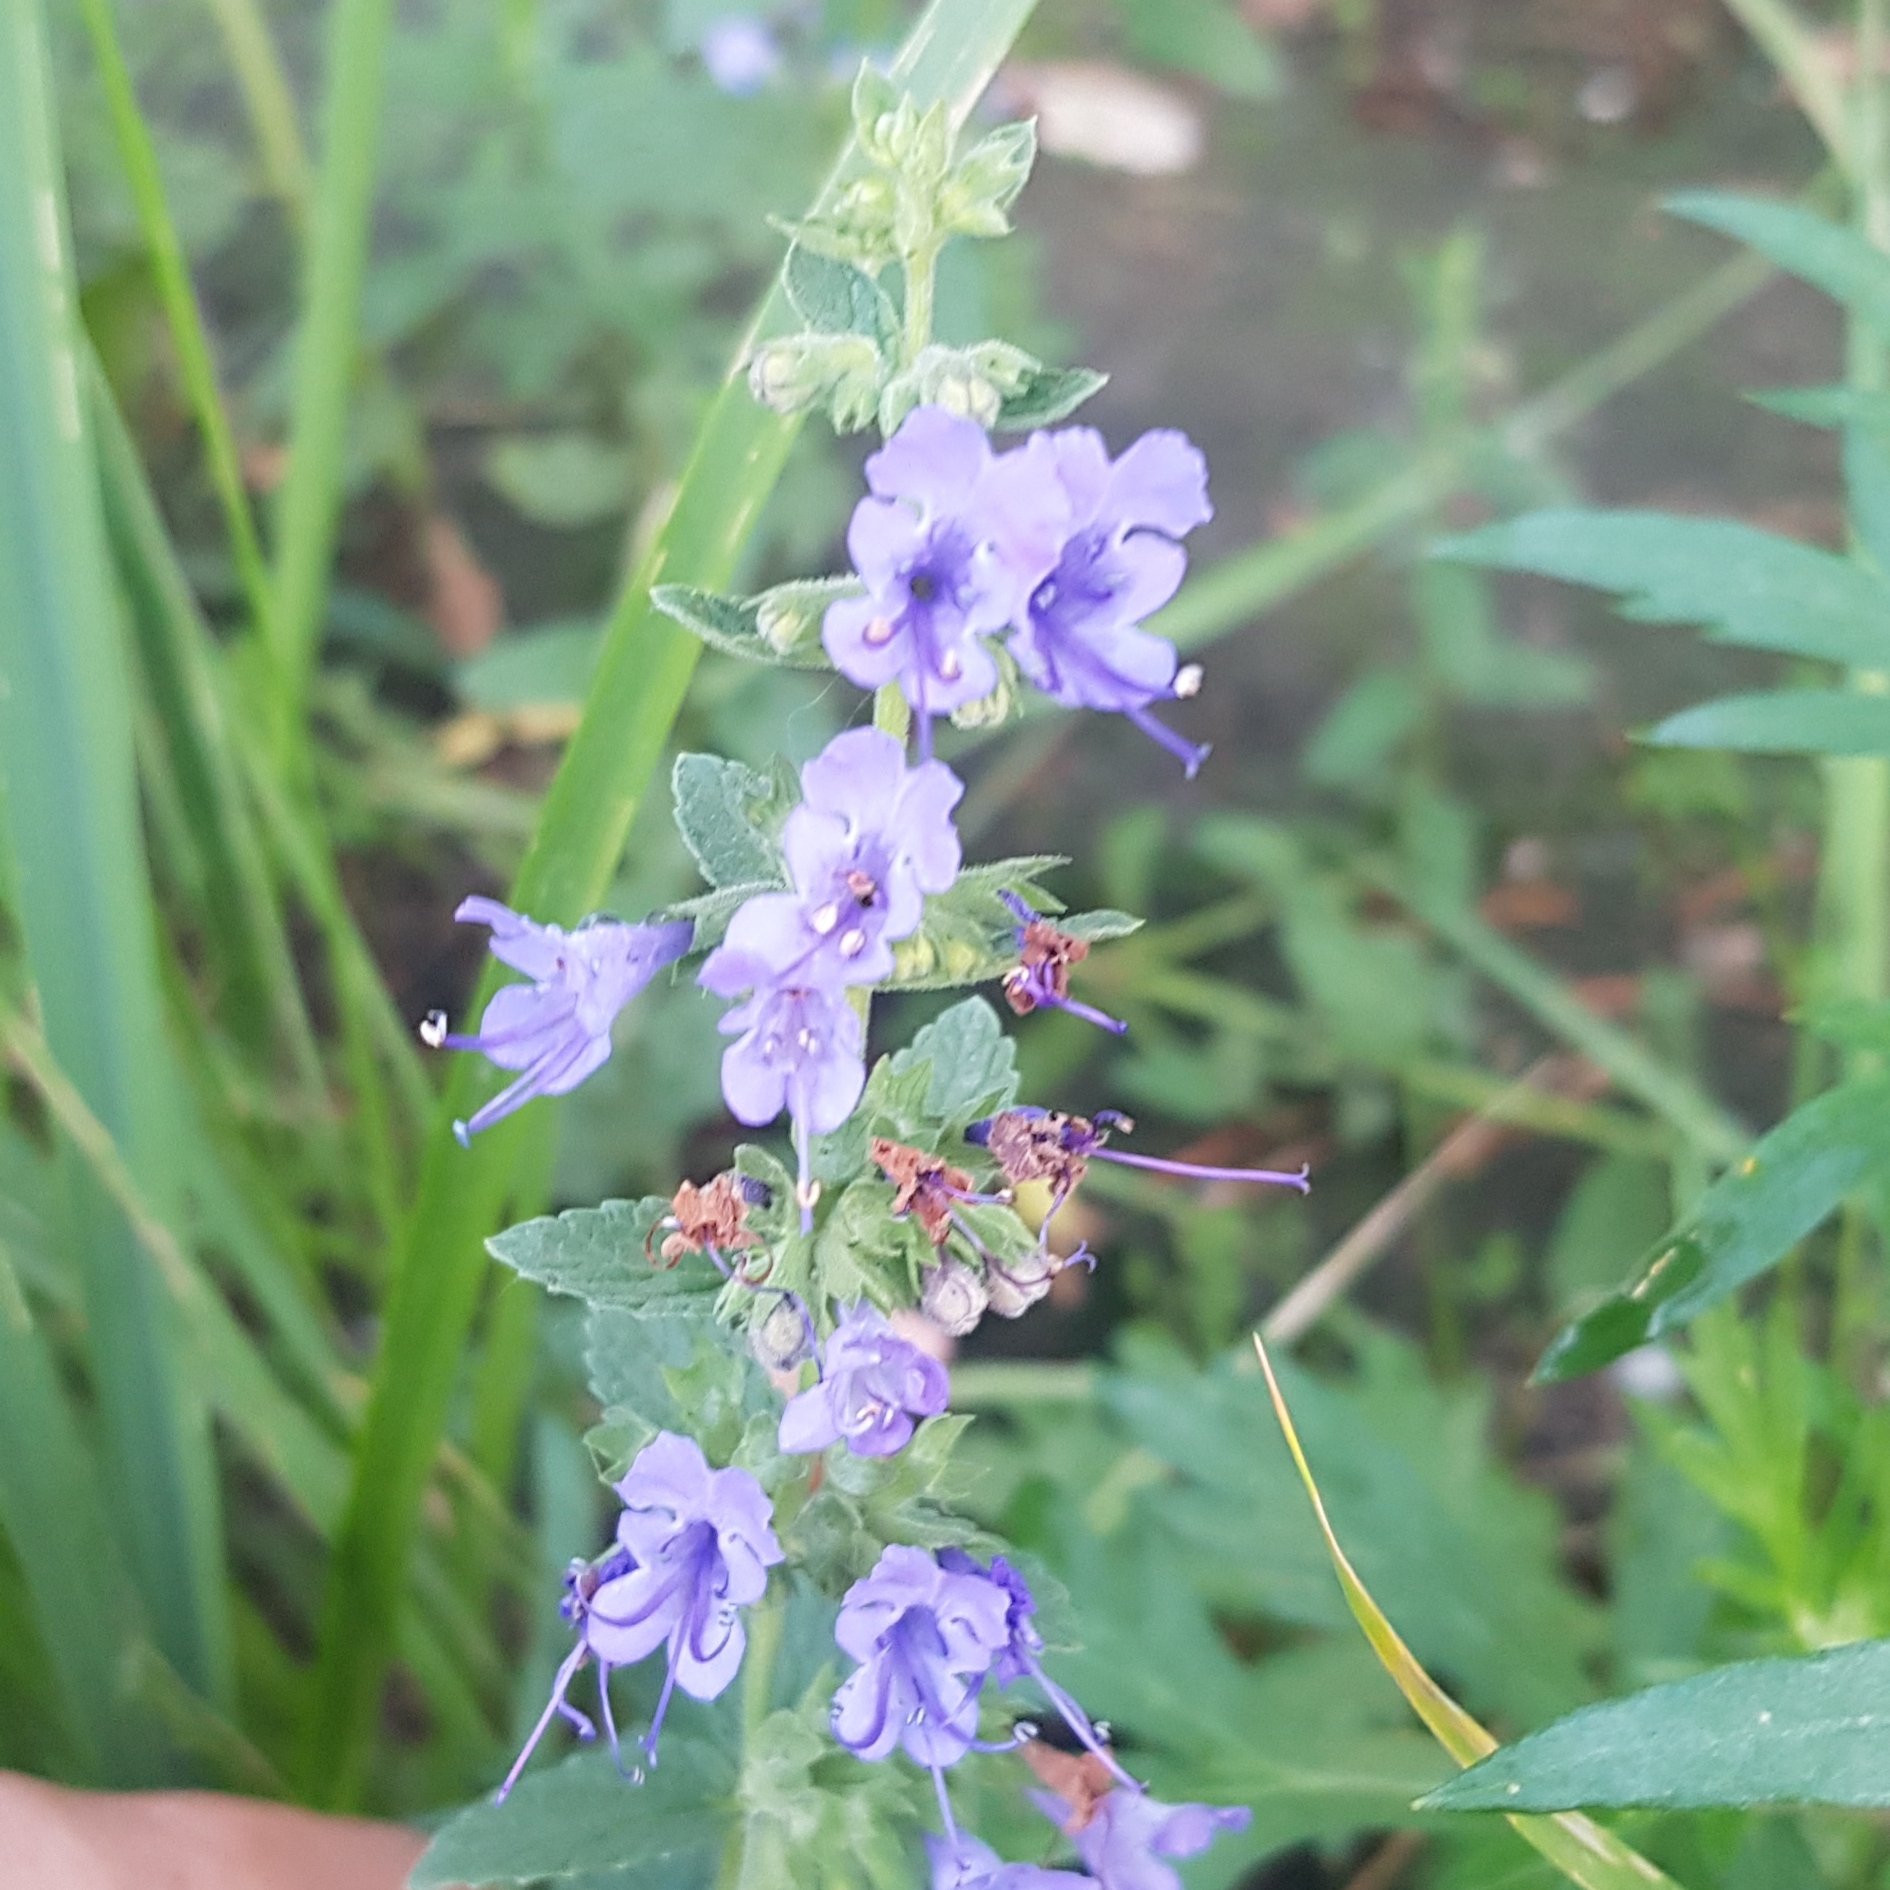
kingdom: Plantae
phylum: Tracheophyta
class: Magnoliopsida
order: Lamiales
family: Lamiaceae
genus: Nepeta
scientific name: Nepeta lophanthus
